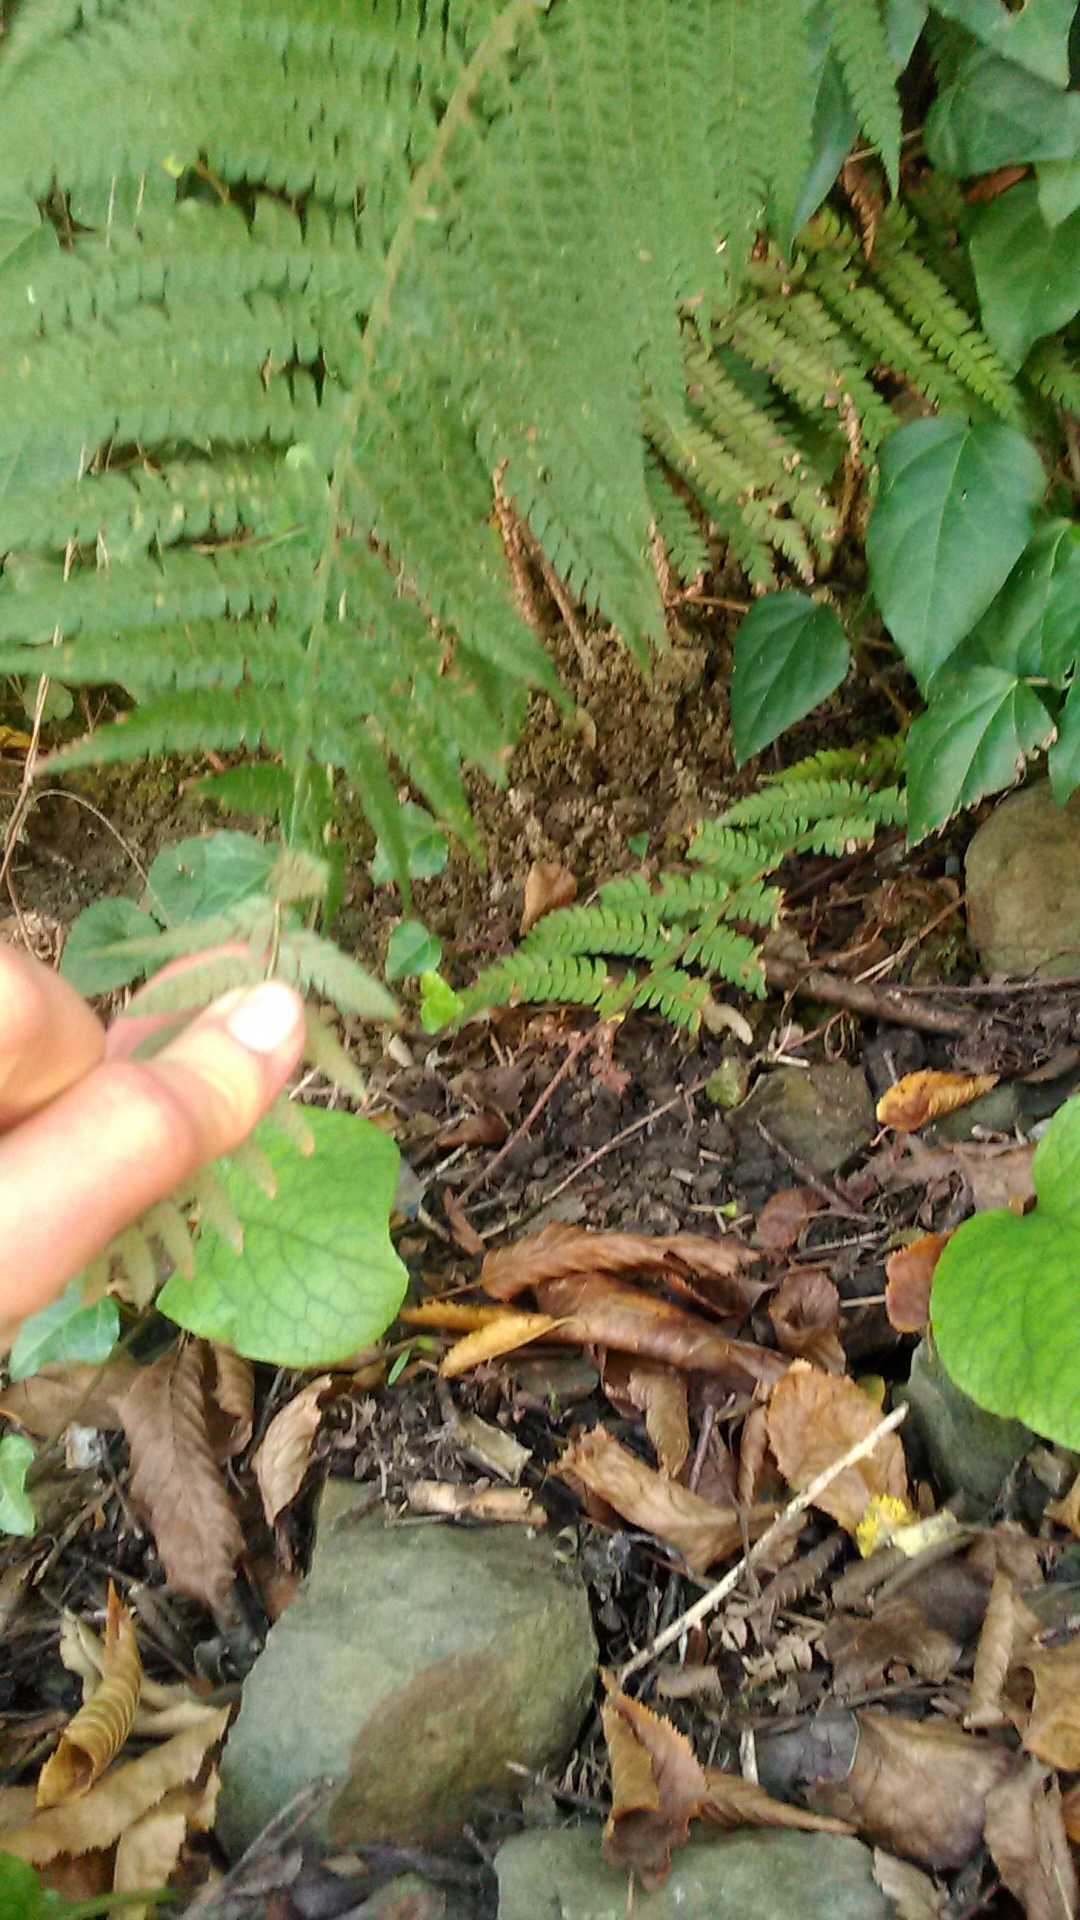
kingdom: Plantae
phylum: Tracheophyta
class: Polypodiopsida
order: Polypodiales
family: Dryopteridaceae
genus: Polystichum
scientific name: Polystichum setiferum
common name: Soft shield-fern
